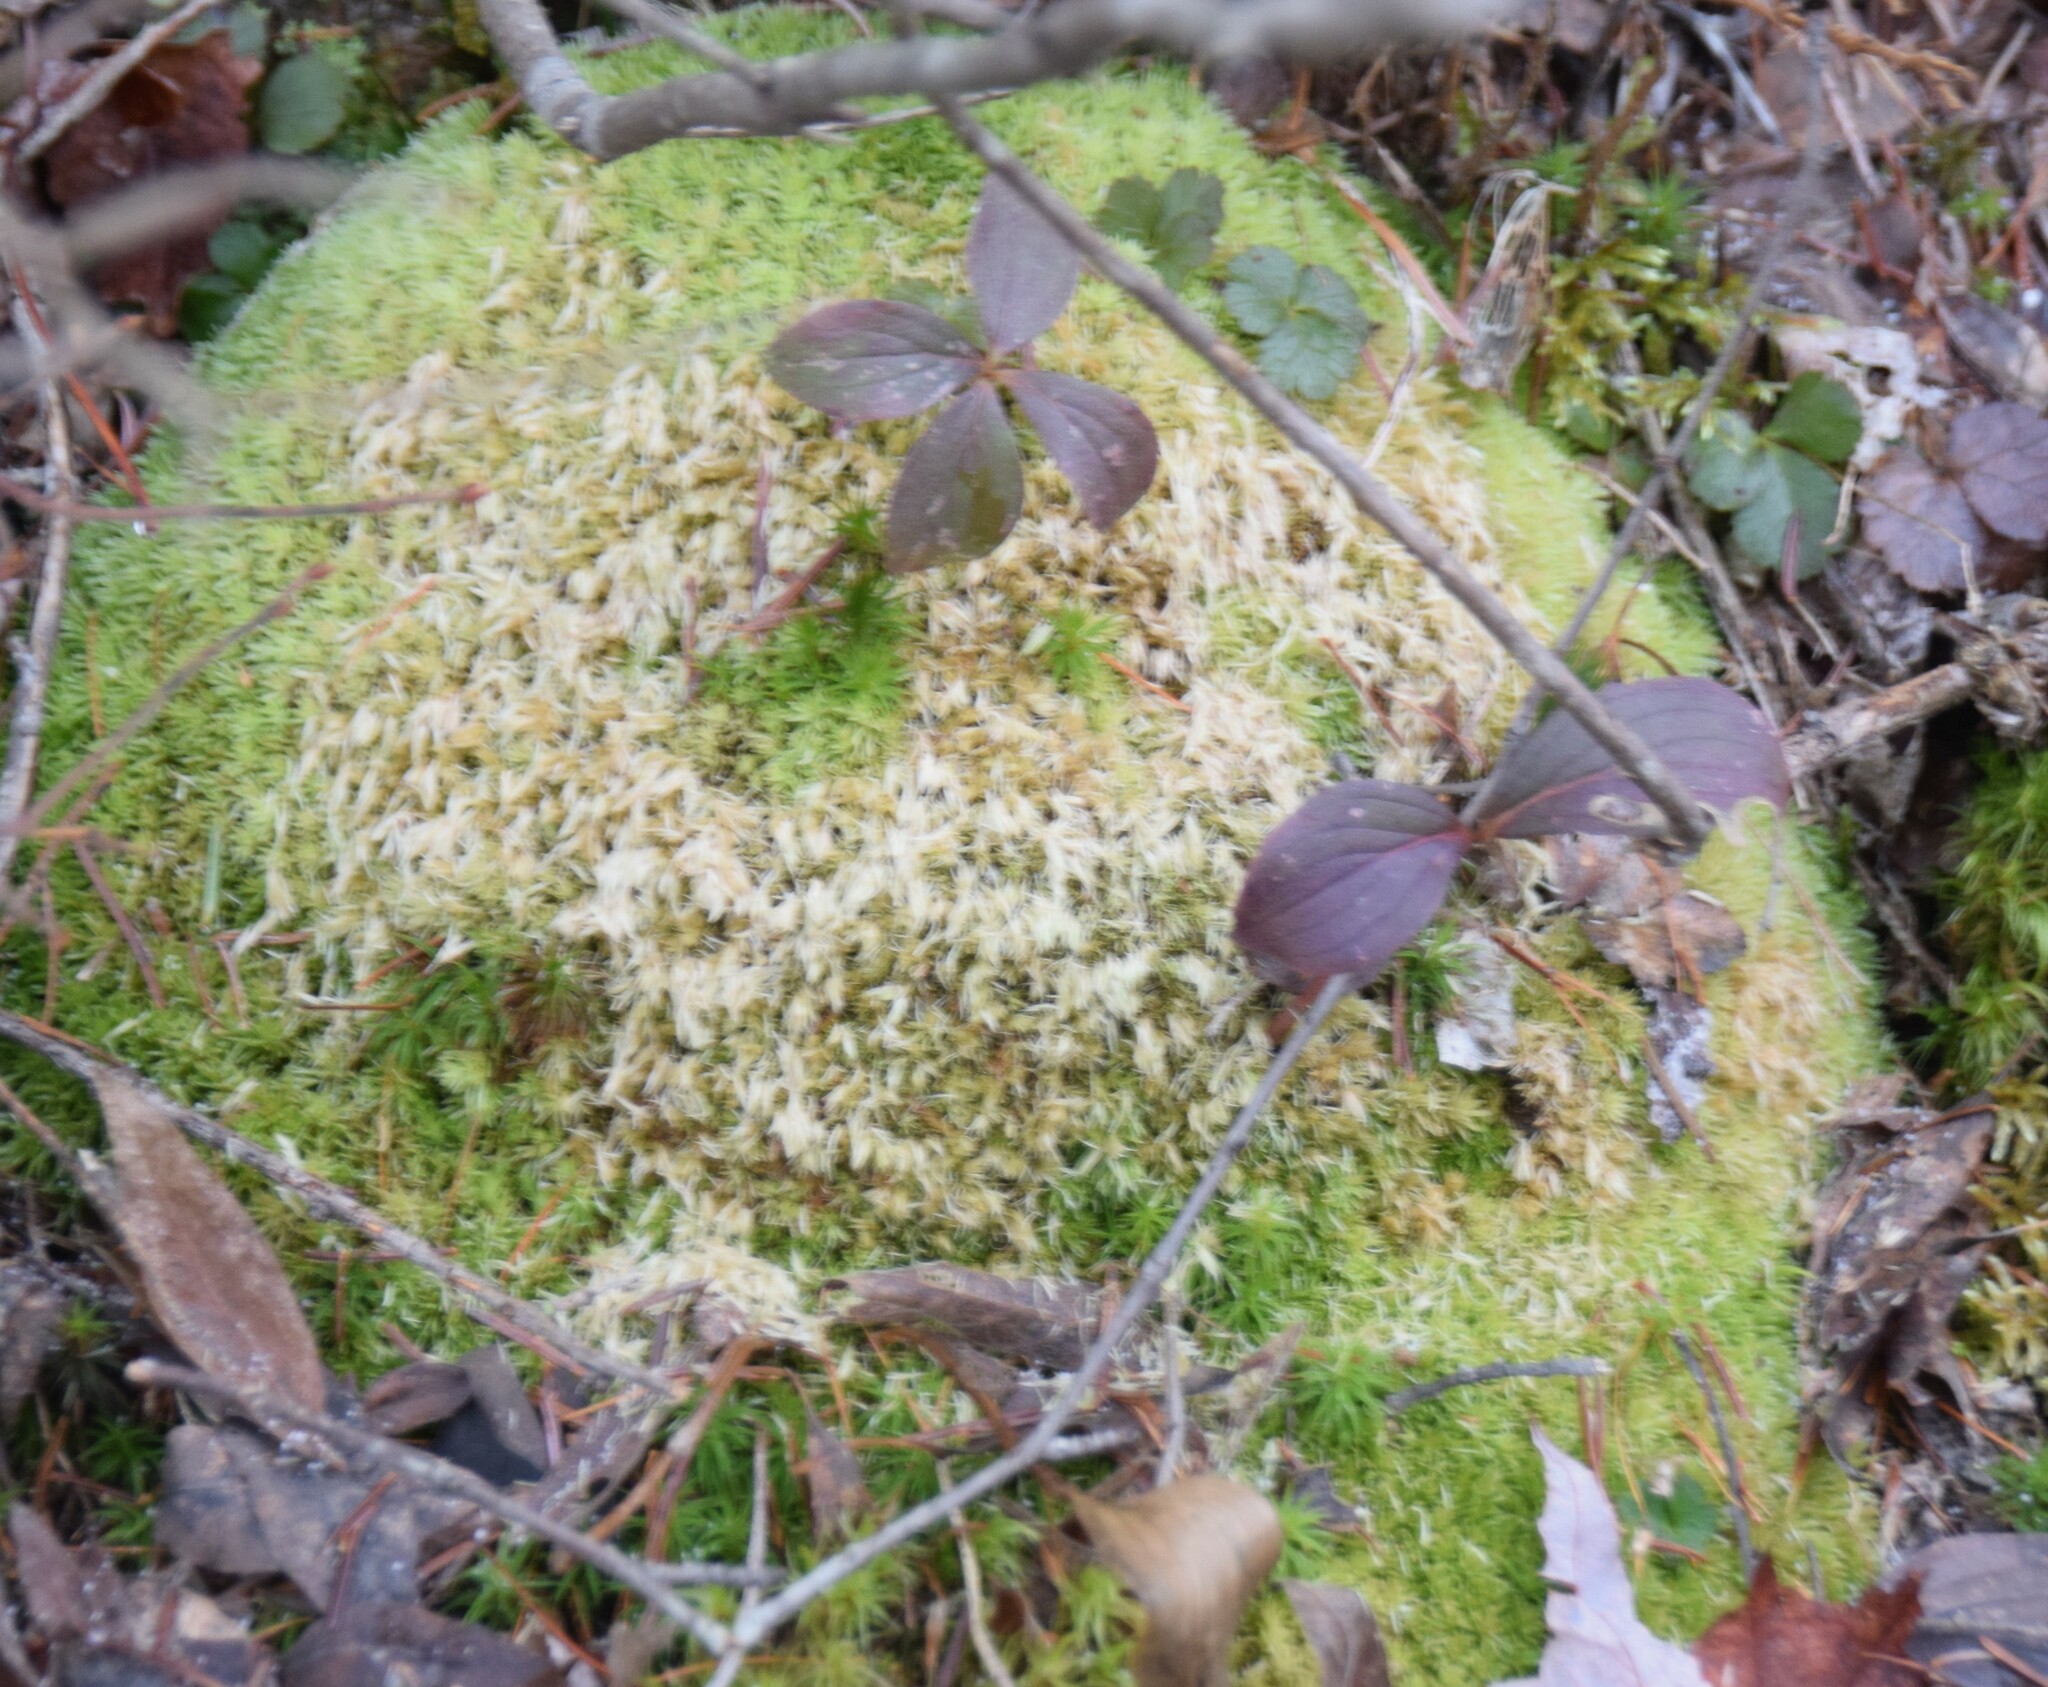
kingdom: Plantae
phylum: Bryophyta
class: Bryopsida
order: Dicranales
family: Leucobryaceae
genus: Leucobryum
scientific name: Leucobryum glaucum
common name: Large white-moss
